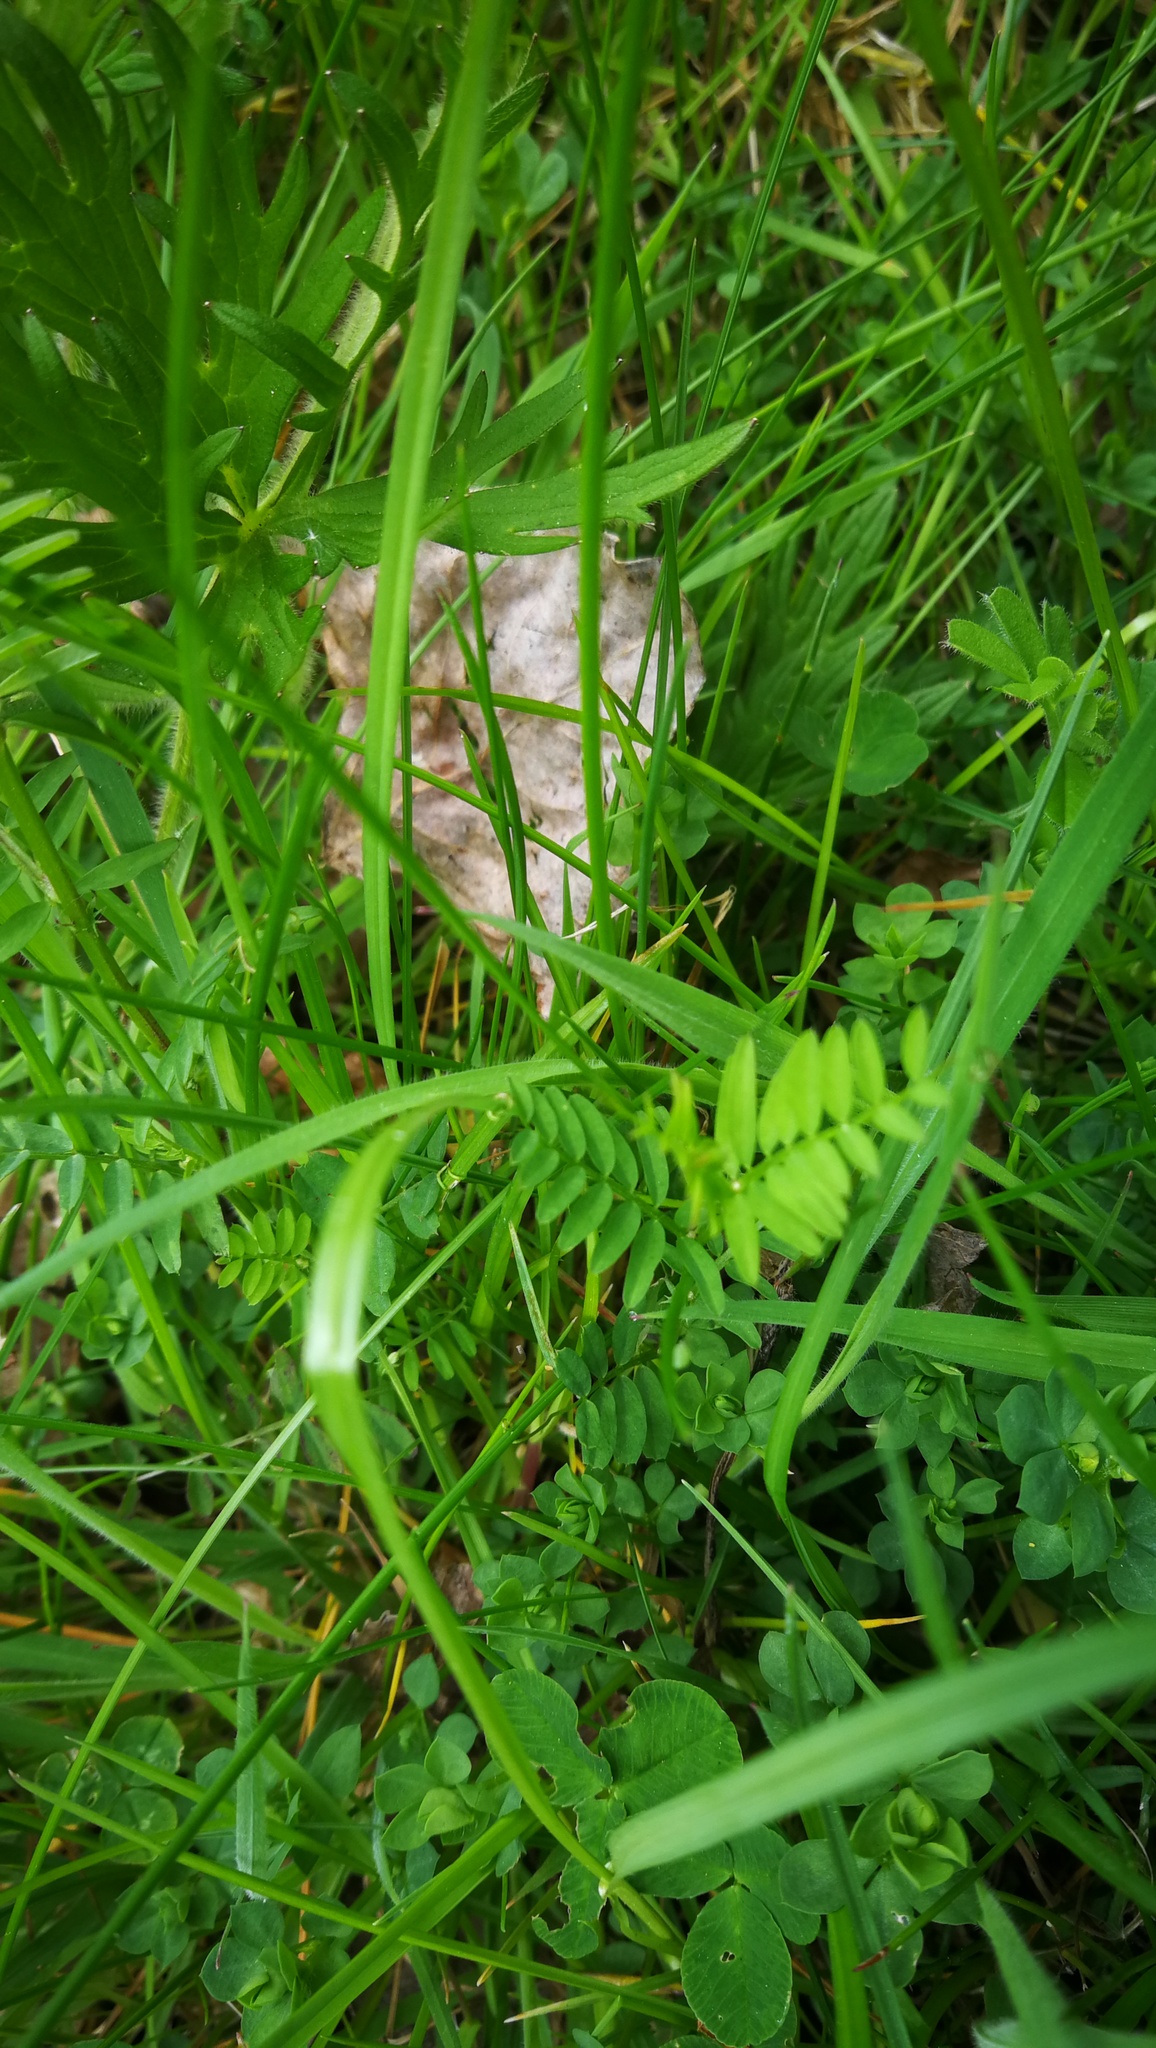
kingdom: Plantae
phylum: Tracheophyta
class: Magnoliopsida
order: Fabales
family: Fabaceae
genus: Vicia
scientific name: Vicia sepium
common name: Bush vetch
